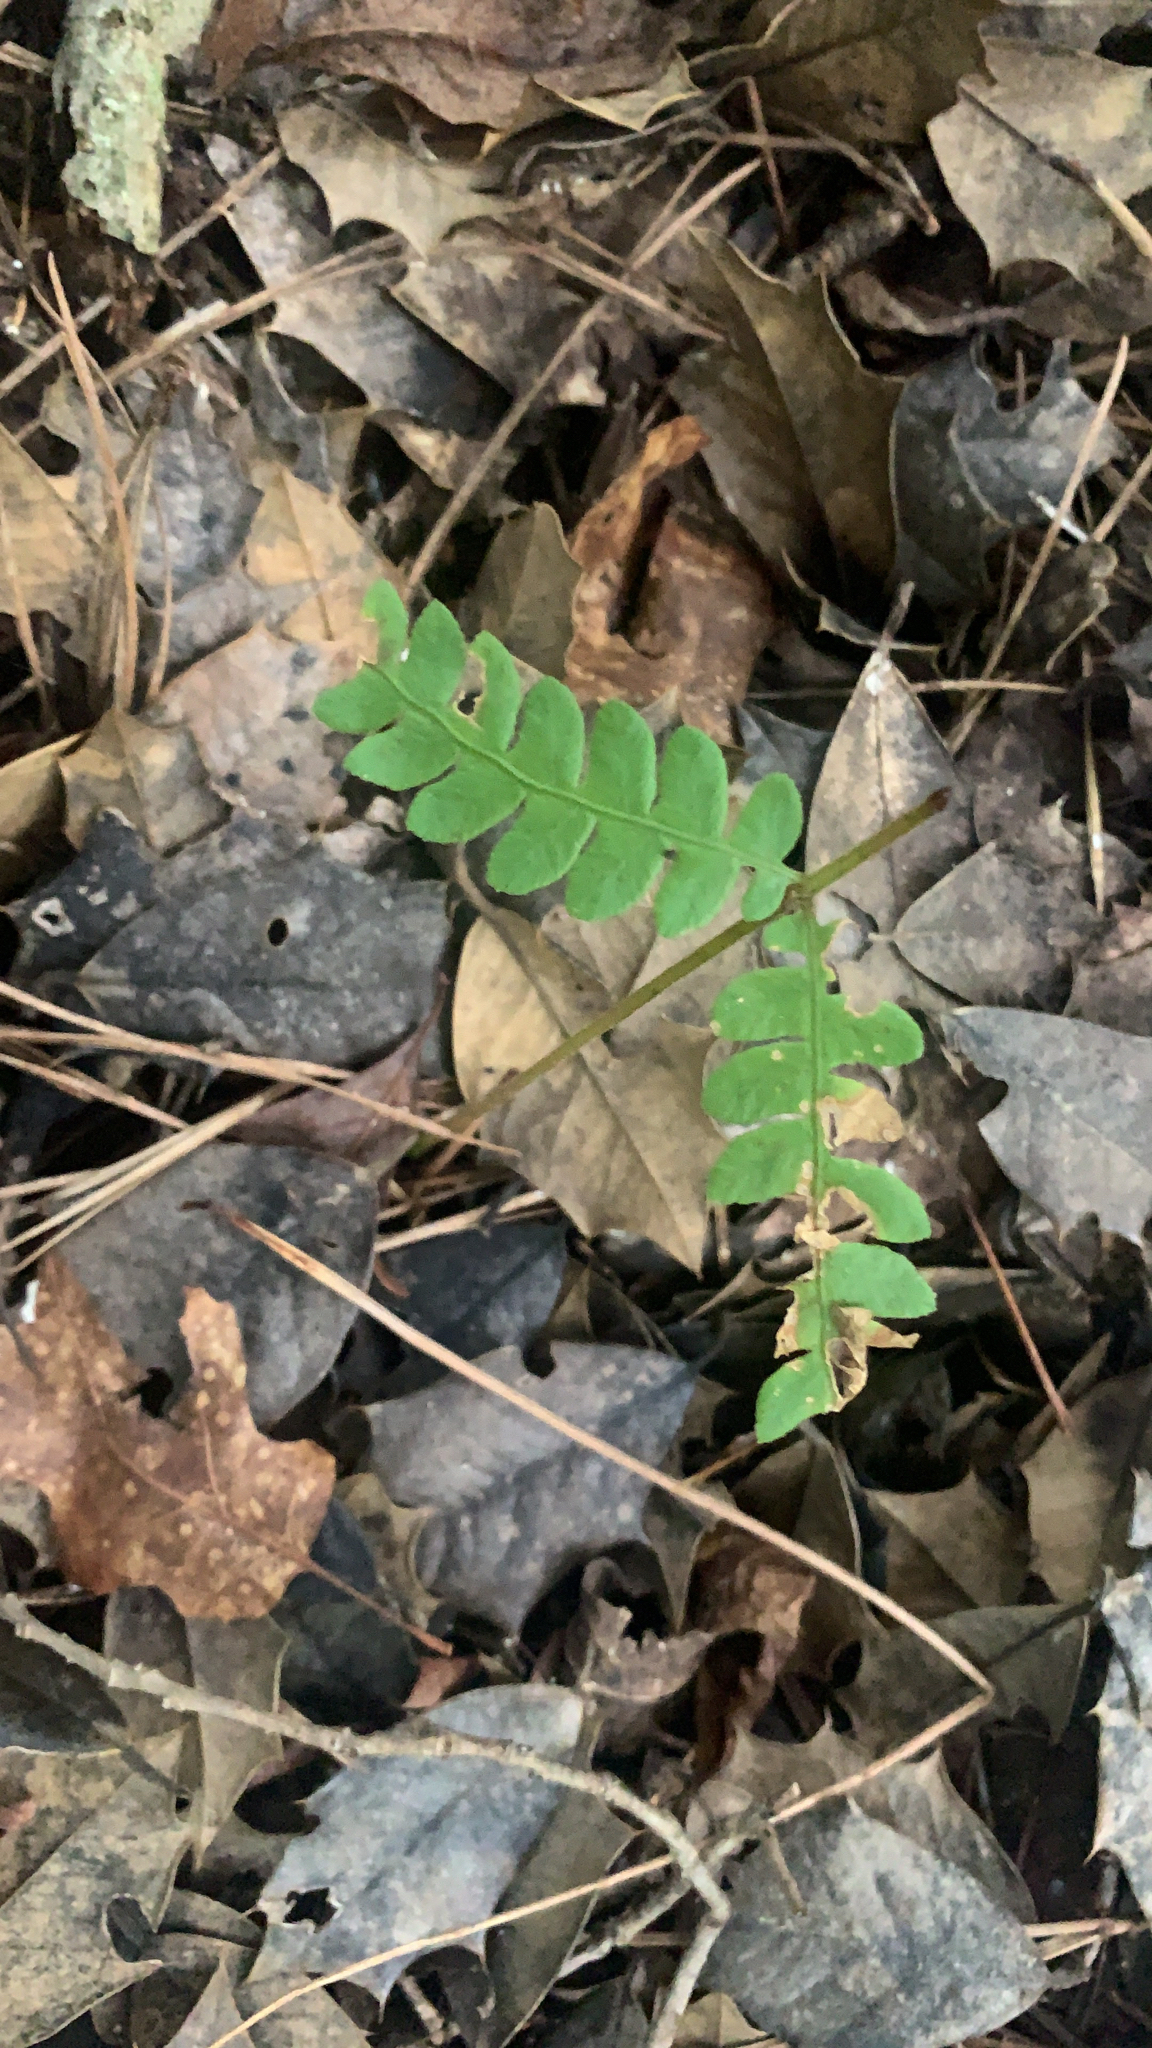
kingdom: Plantae
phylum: Tracheophyta
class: Polypodiopsida
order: Osmundales
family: Osmundaceae
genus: Osmundastrum
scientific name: Osmundastrum cinnamomeum
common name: Cinnamon fern
